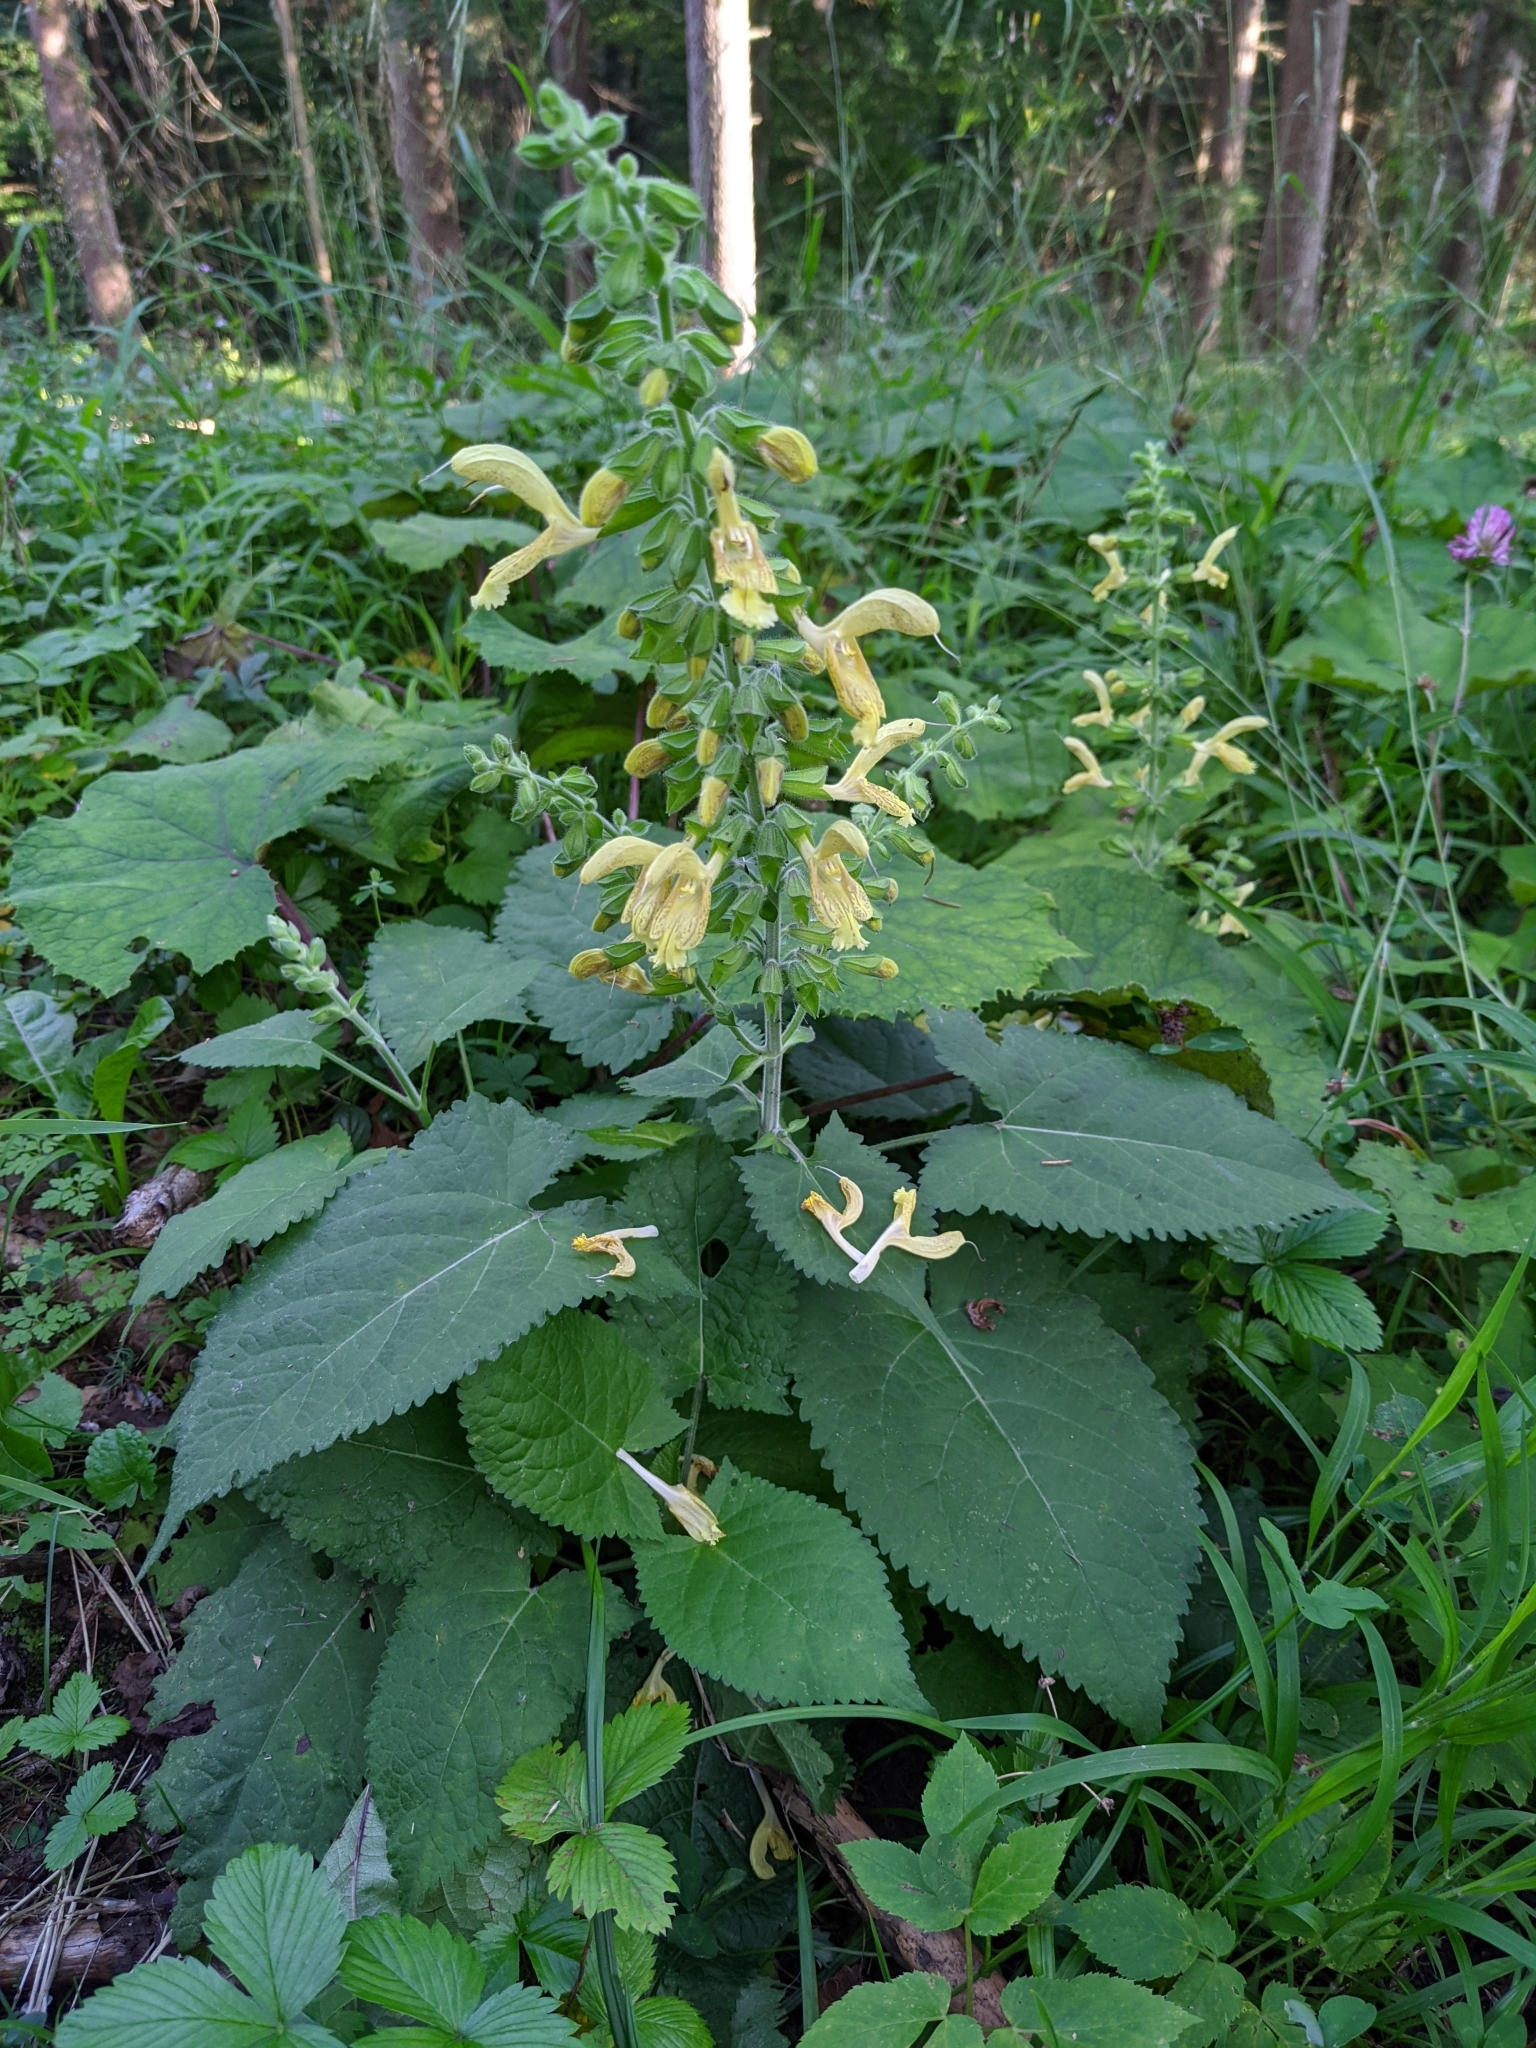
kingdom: Plantae
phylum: Tracheophyta
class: Magnoliopsida
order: Lamiales
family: Lamiaceae
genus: Salvia
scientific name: Salvia glutinosa
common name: Sticky clary
